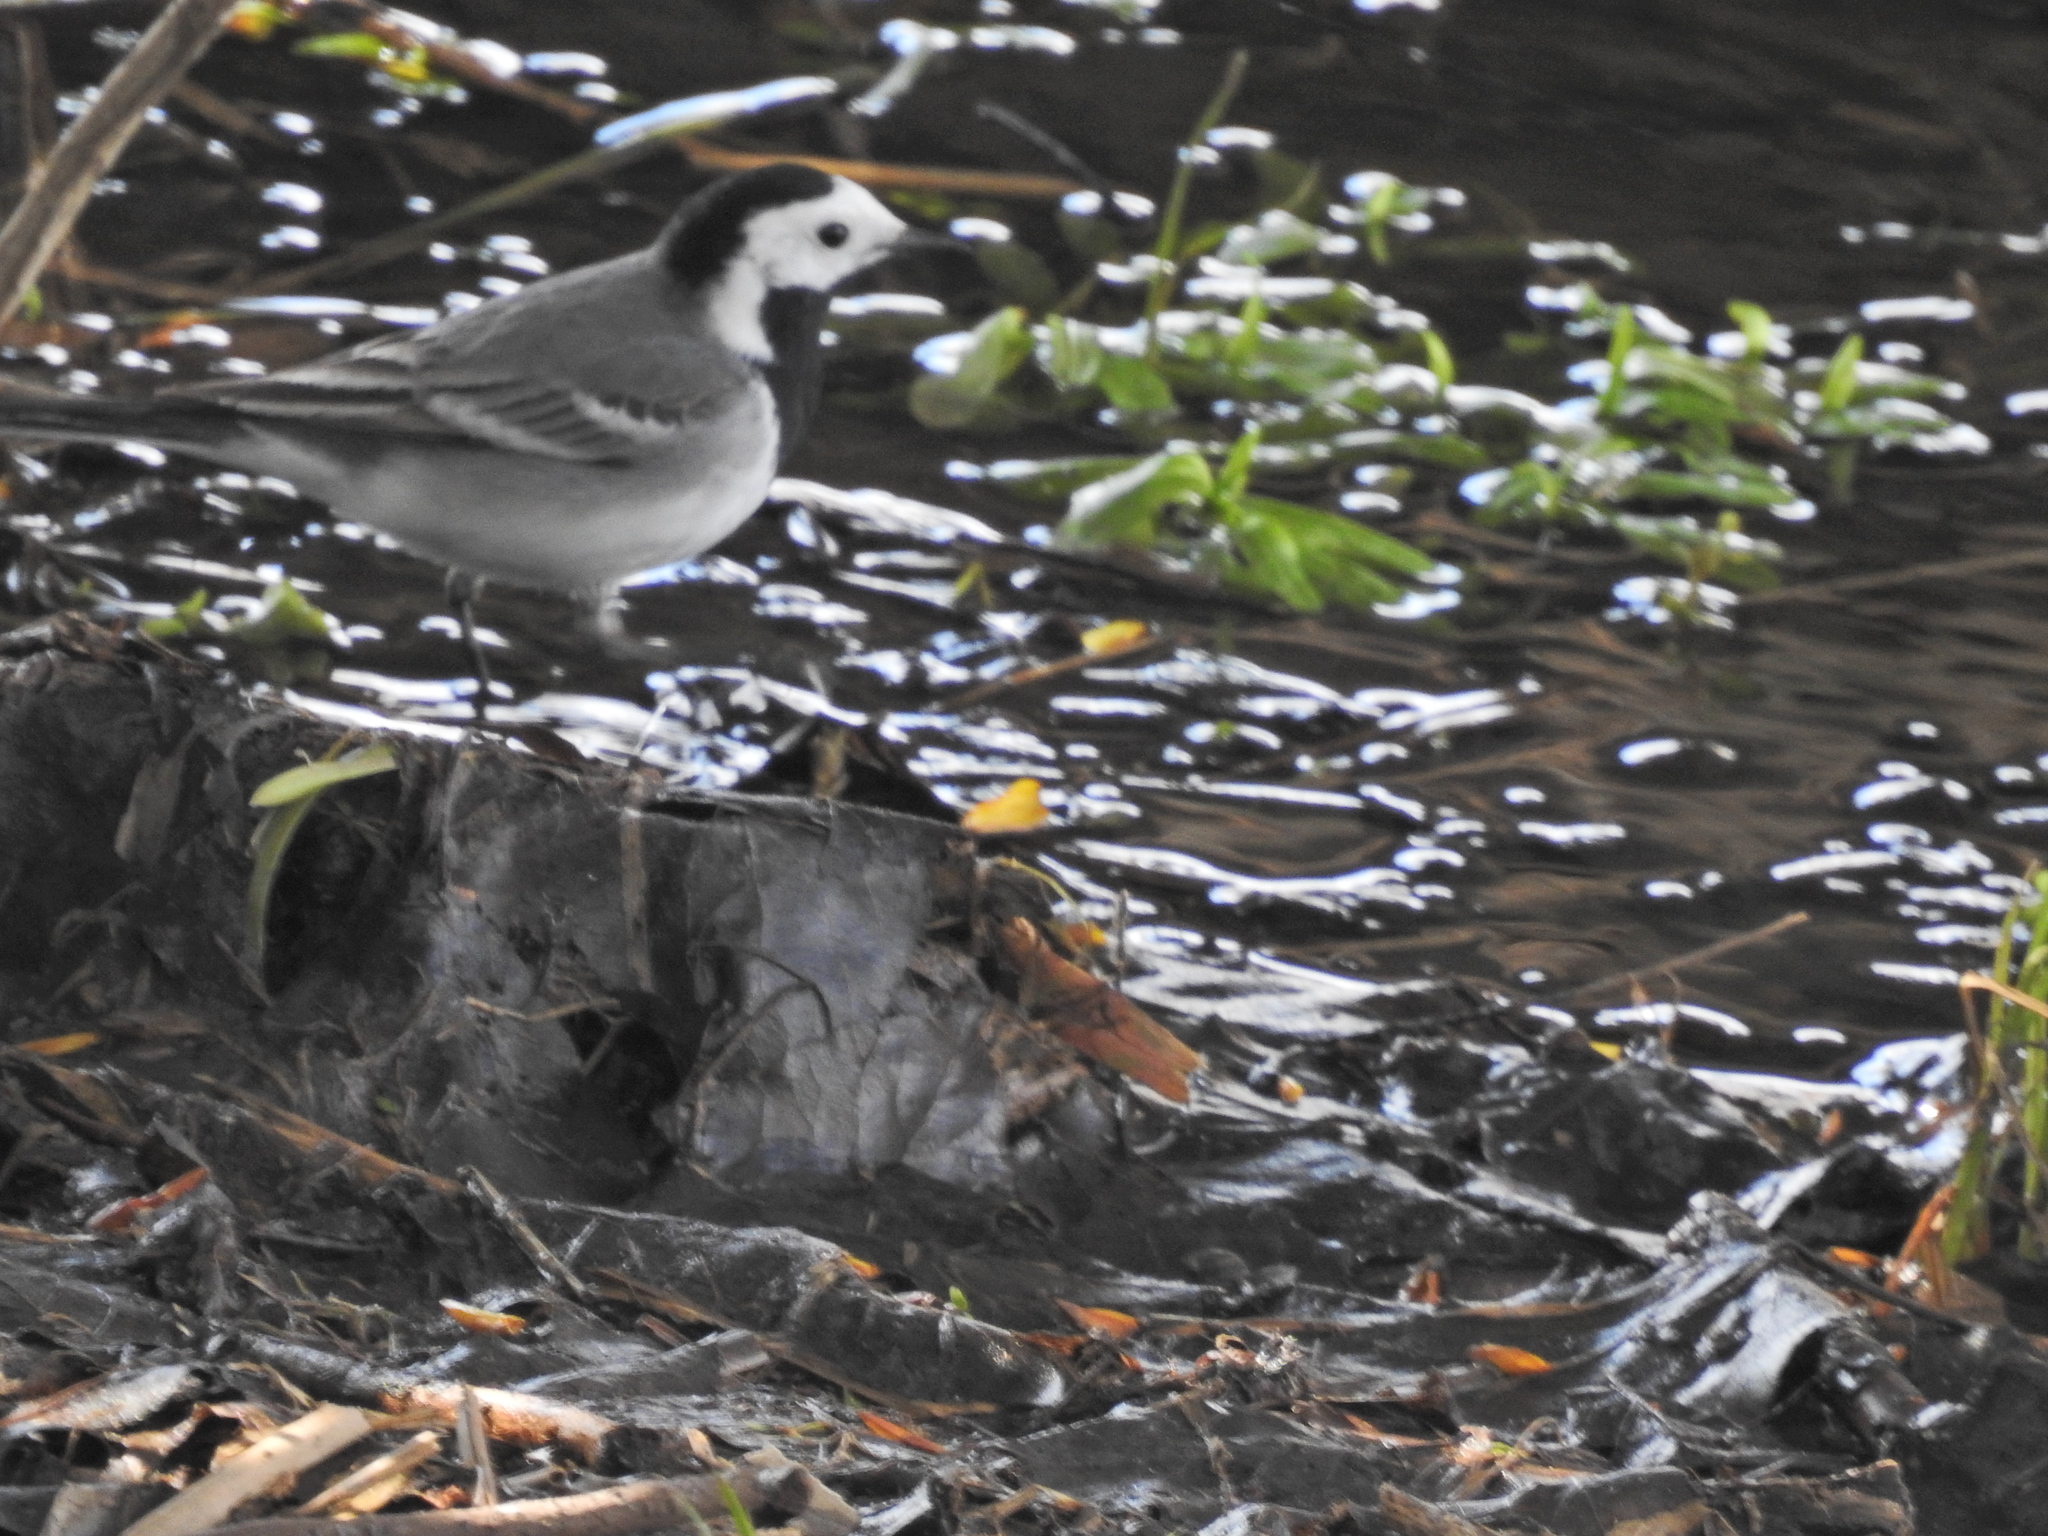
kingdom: Animalia
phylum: Chordata
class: Aves
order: Passeriformes
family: Motacillidae
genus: Motacilla
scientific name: Motacilla alba
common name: White wagtail
